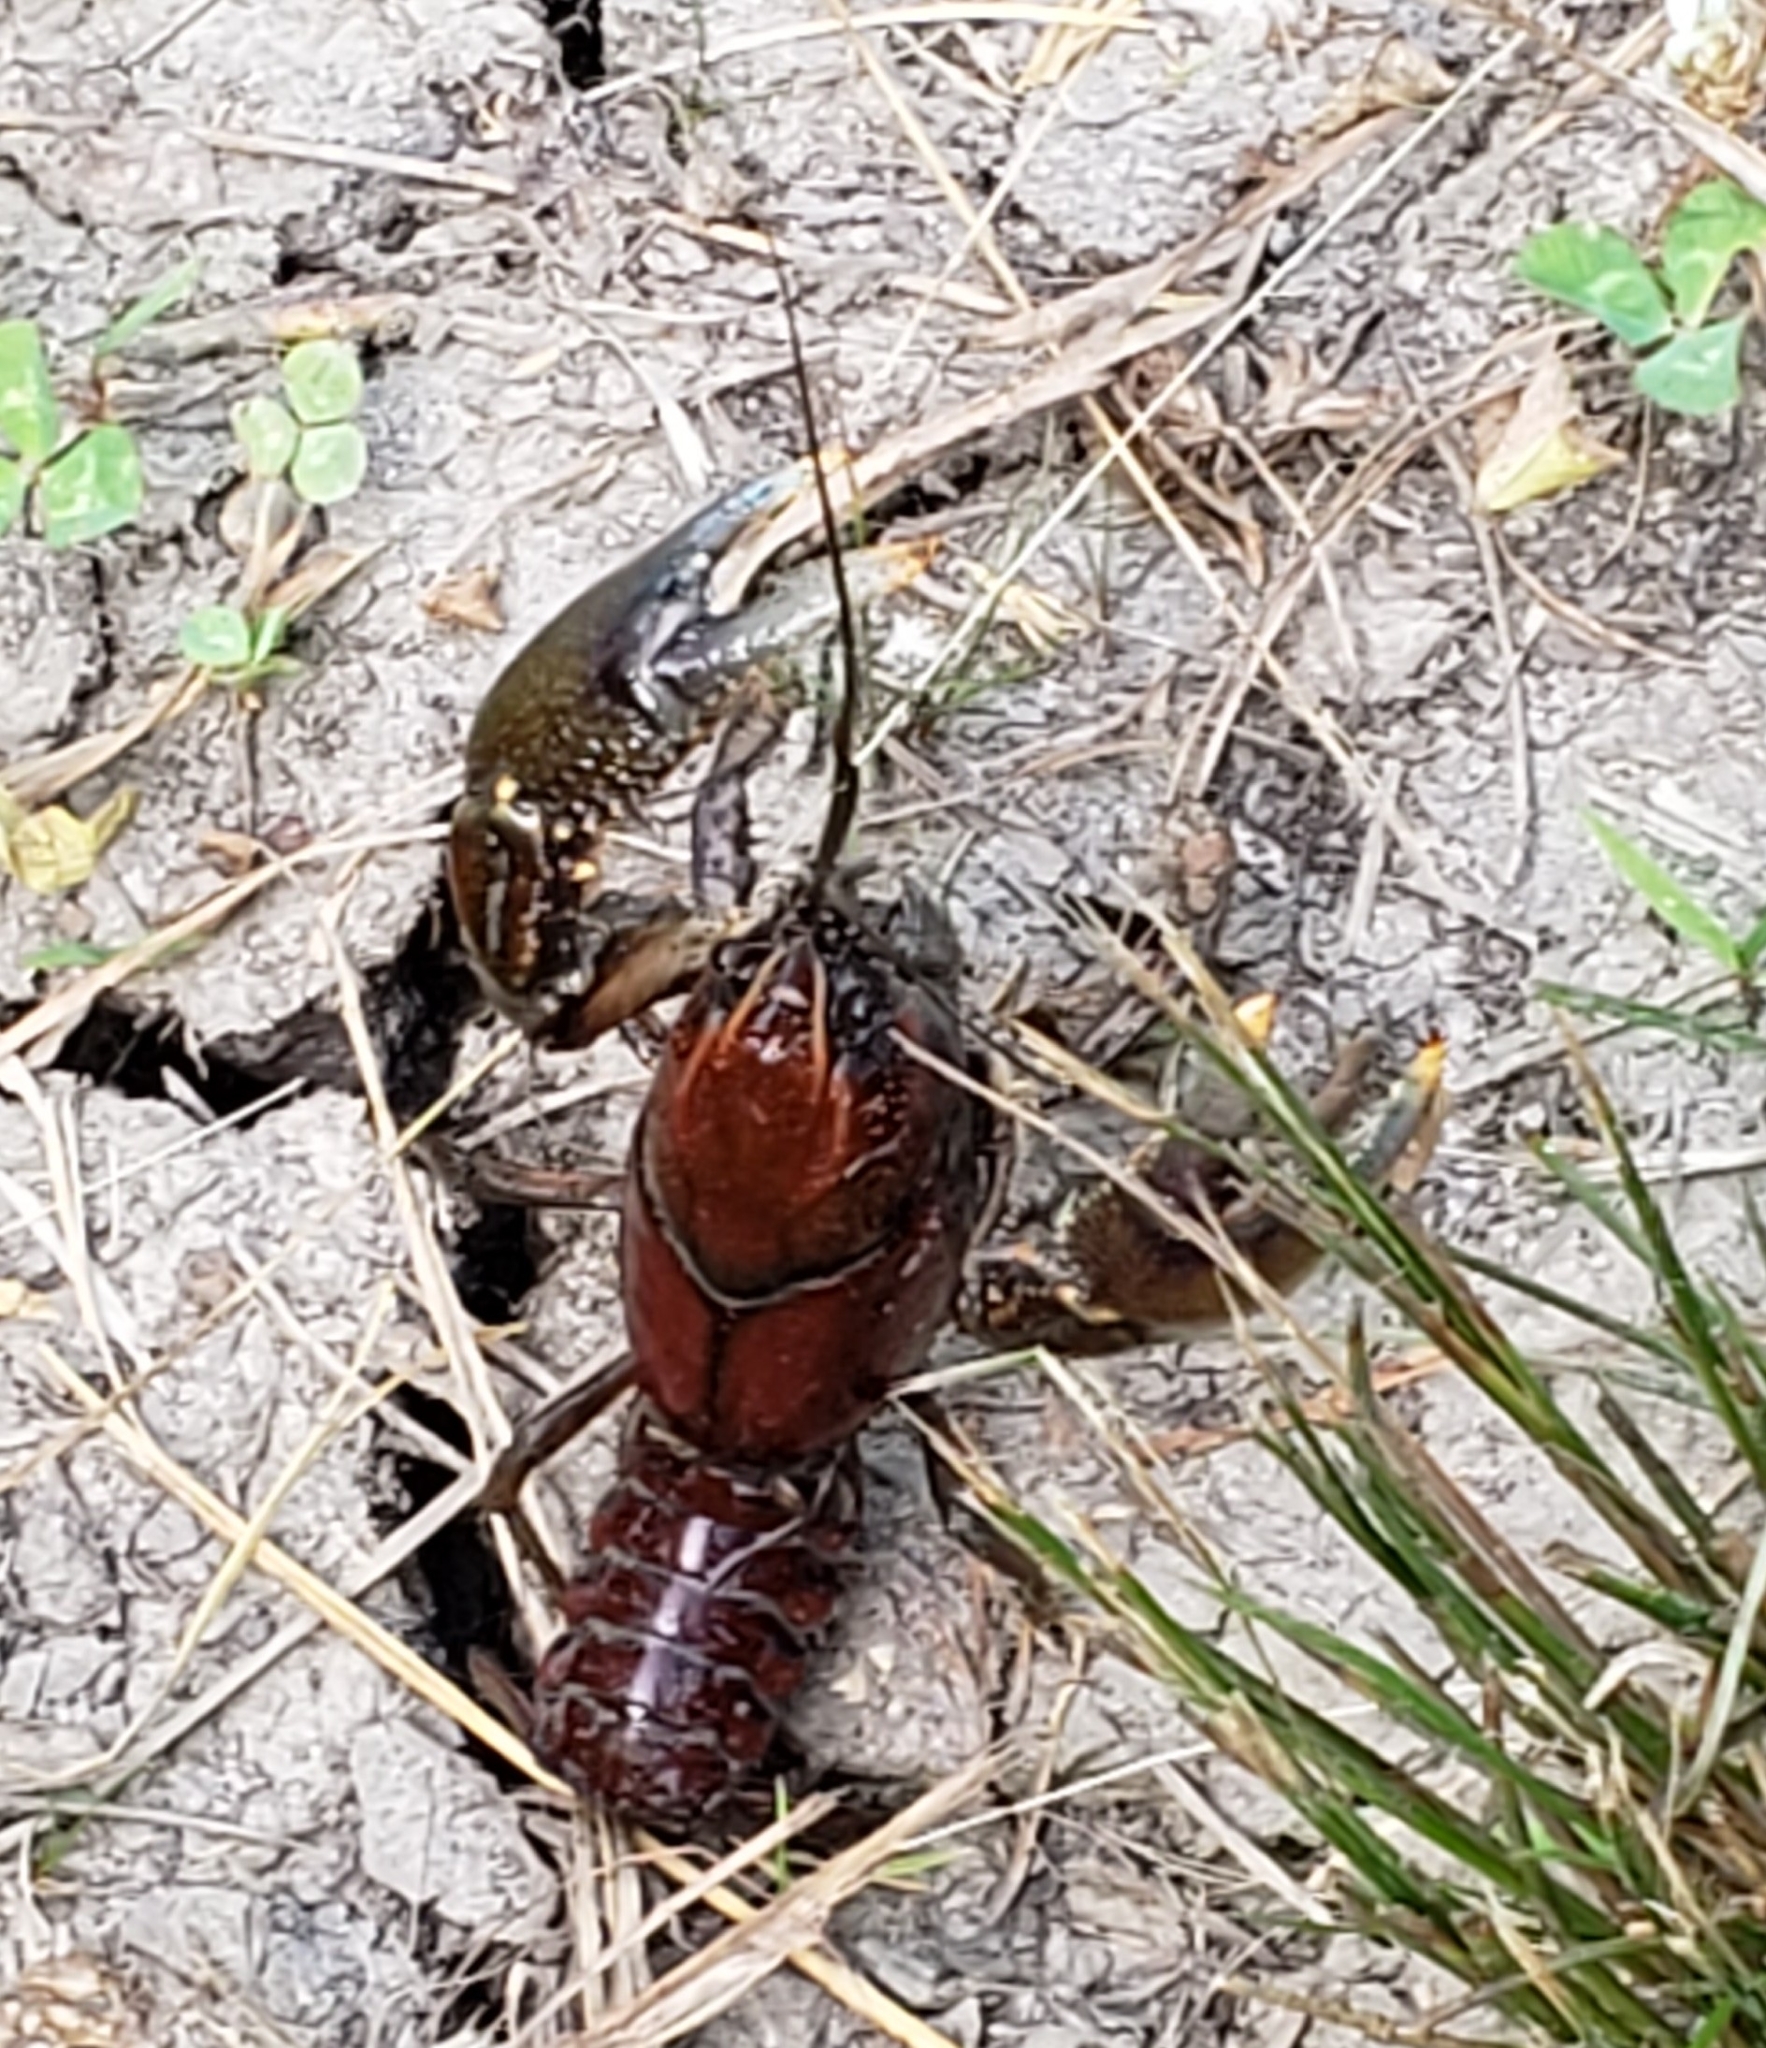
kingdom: Animalia
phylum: Arthropoda
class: Malacostraca
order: Decapoda
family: Cambaridae
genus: Procambarus
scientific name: Procambarus liberorum
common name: Osage burrowing crayfish
